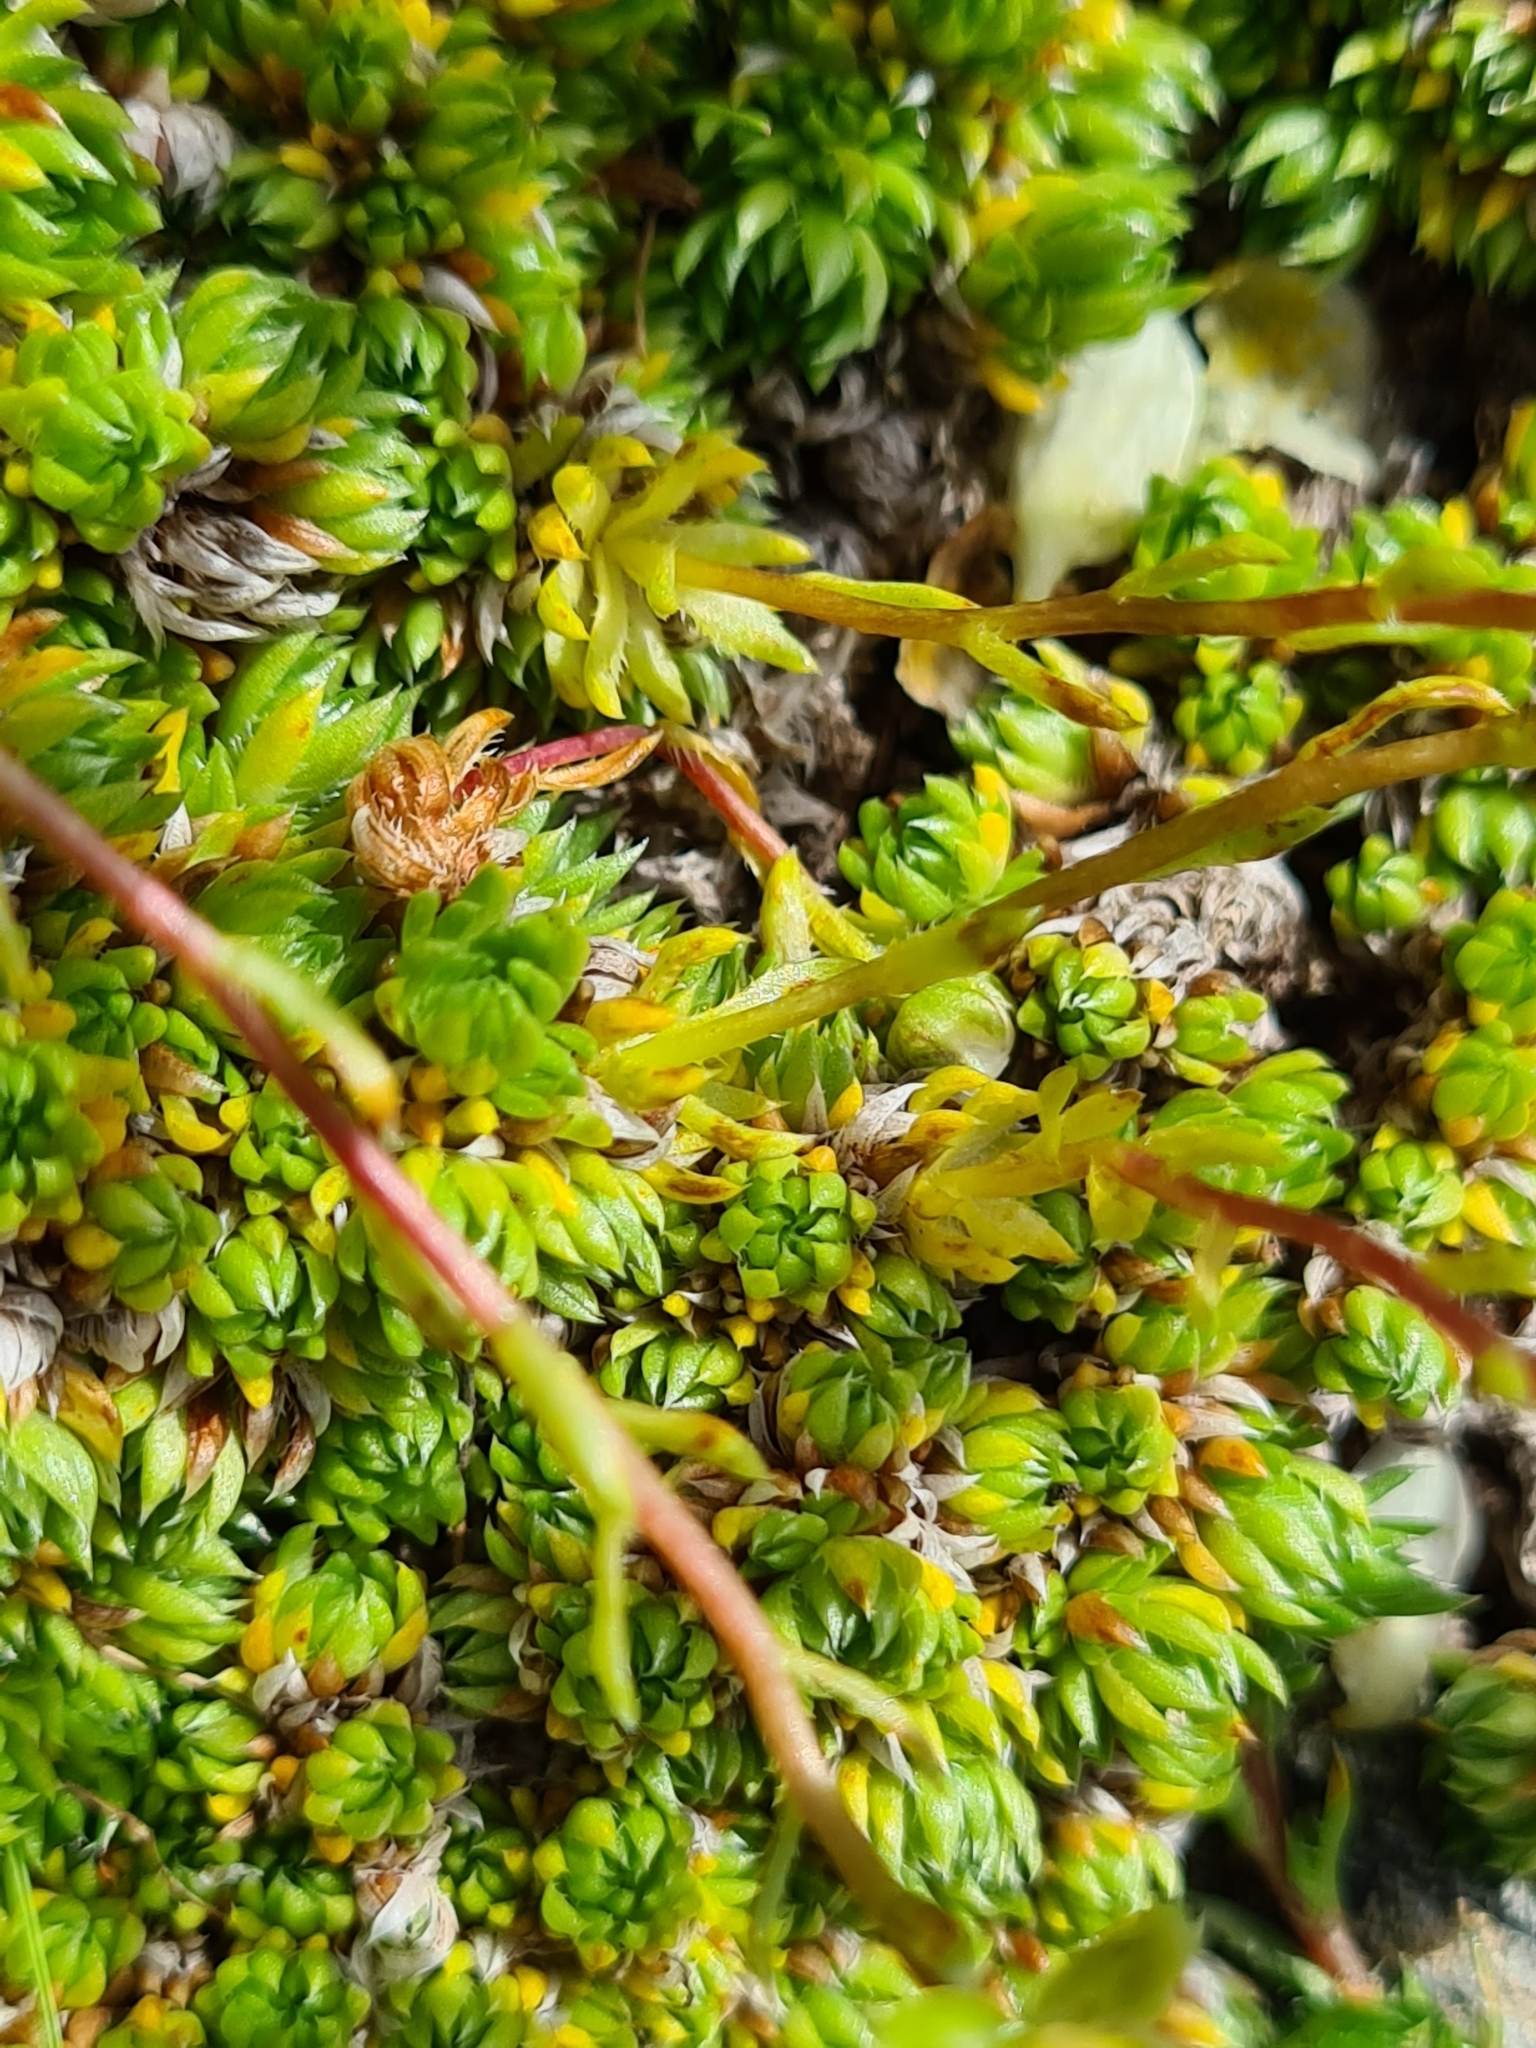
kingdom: Plantae
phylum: Tracheophyta
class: Magnoliopsida
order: Saxifragales
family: Saxifragaceae
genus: Saxifraga
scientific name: Saxifraga bryoides
